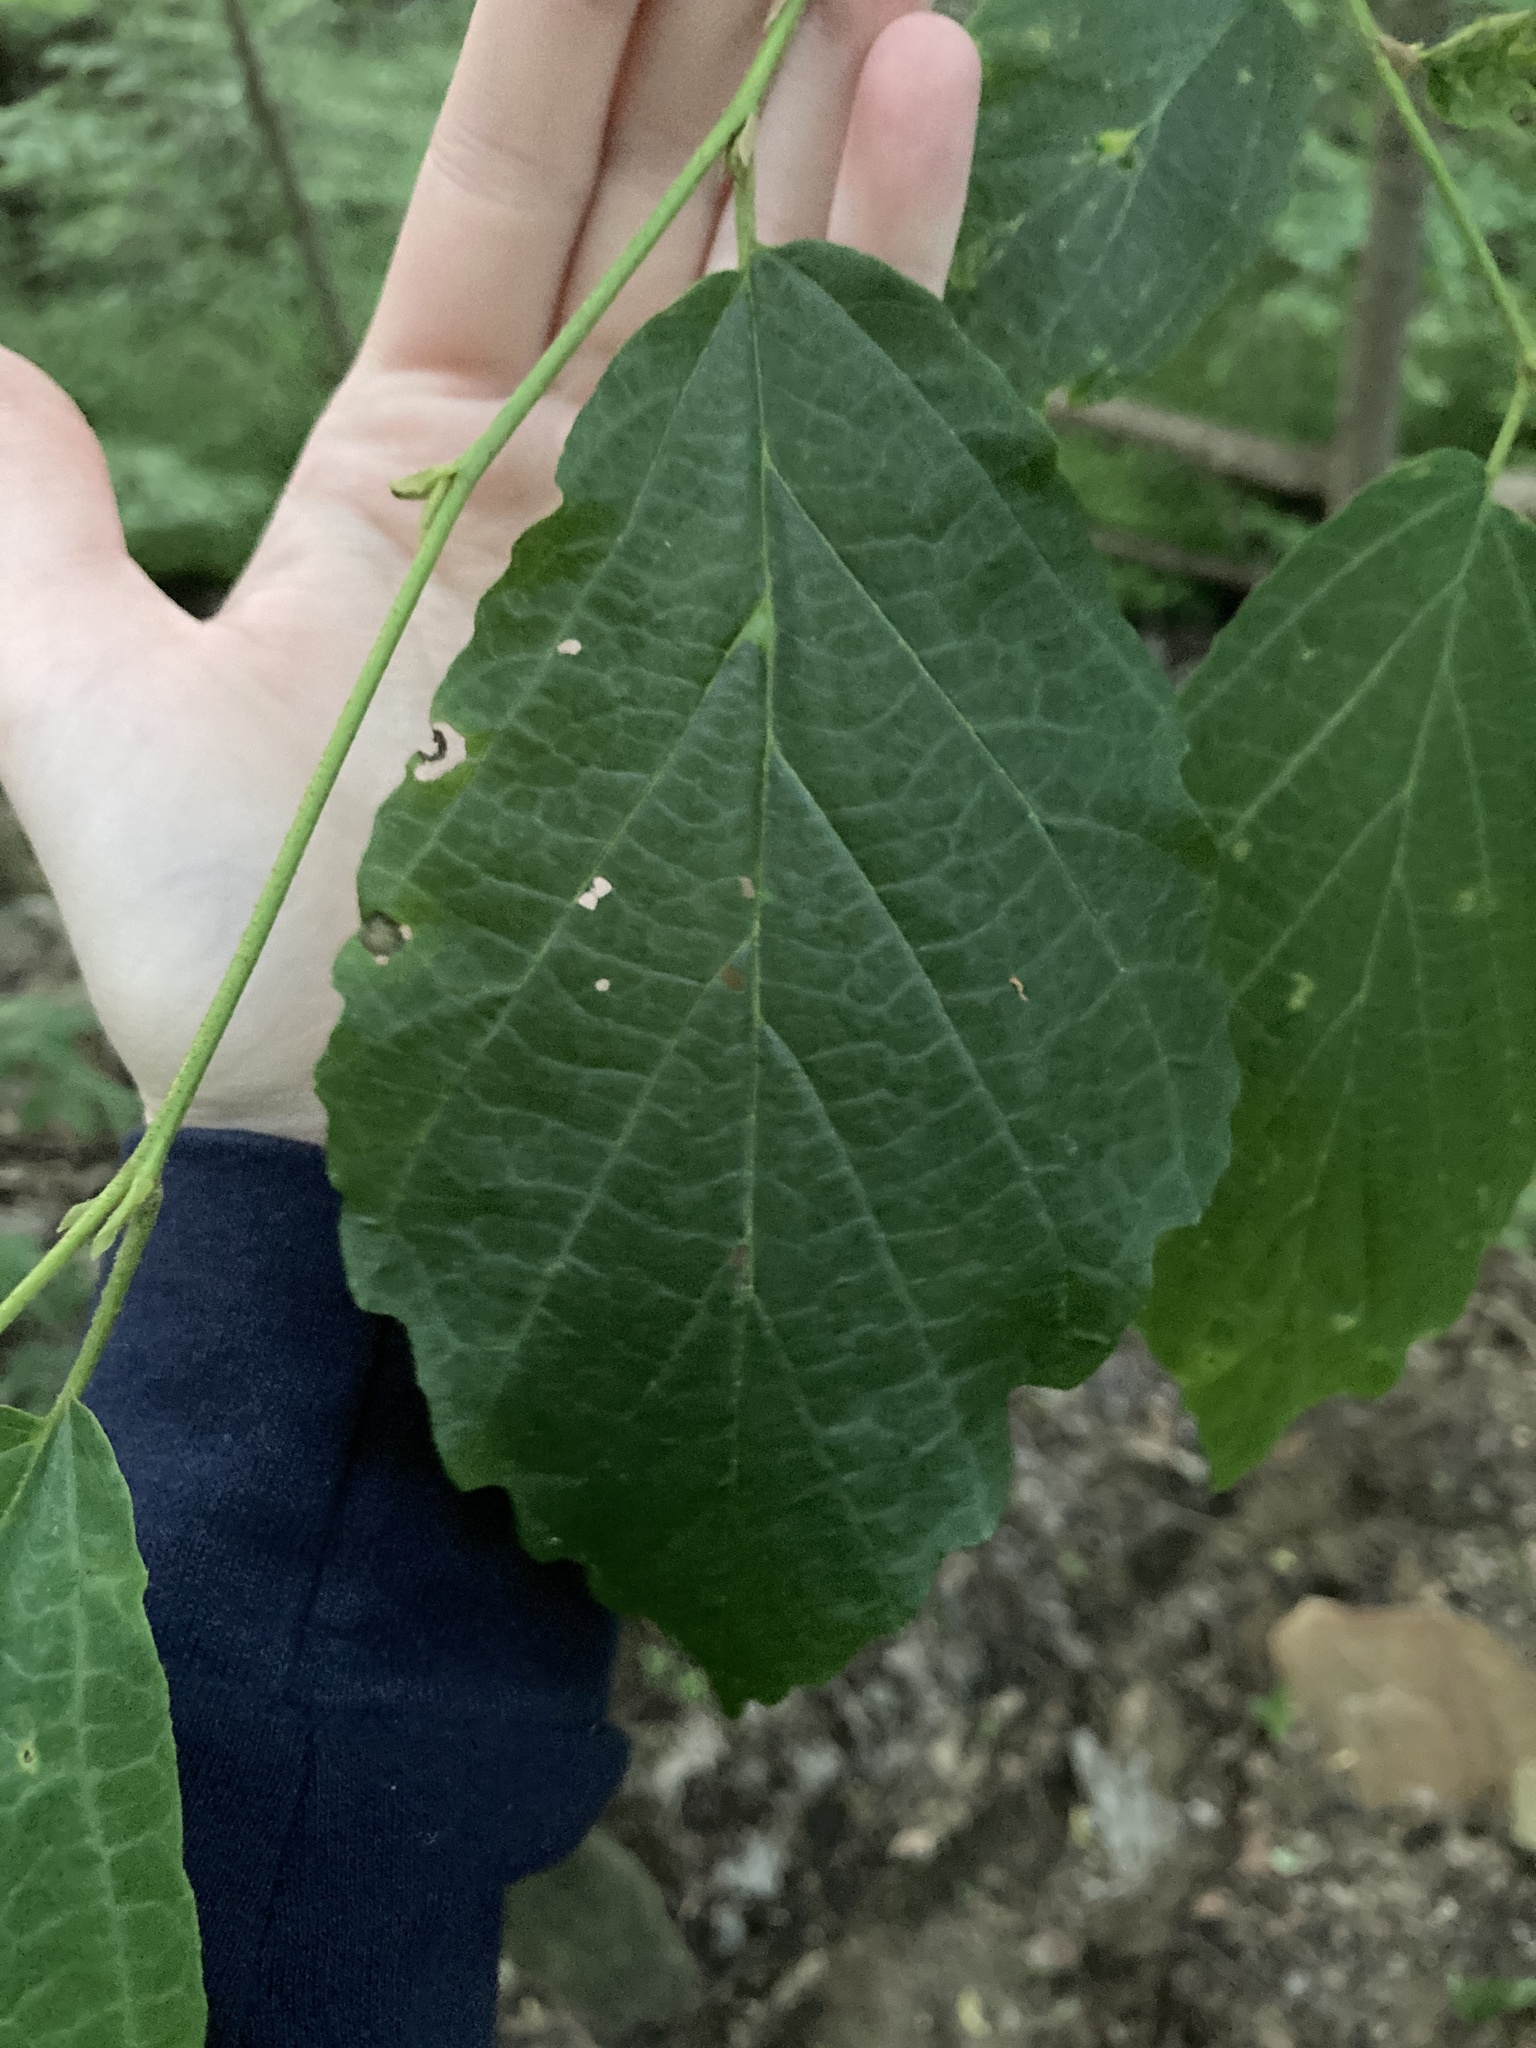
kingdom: Plantae
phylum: Tracheophyta
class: Magnoliopsida
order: Saxifragales
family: Hamamelidaceae
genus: Hamamelis
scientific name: Hamamelis virginiana
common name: Witch-hazel
